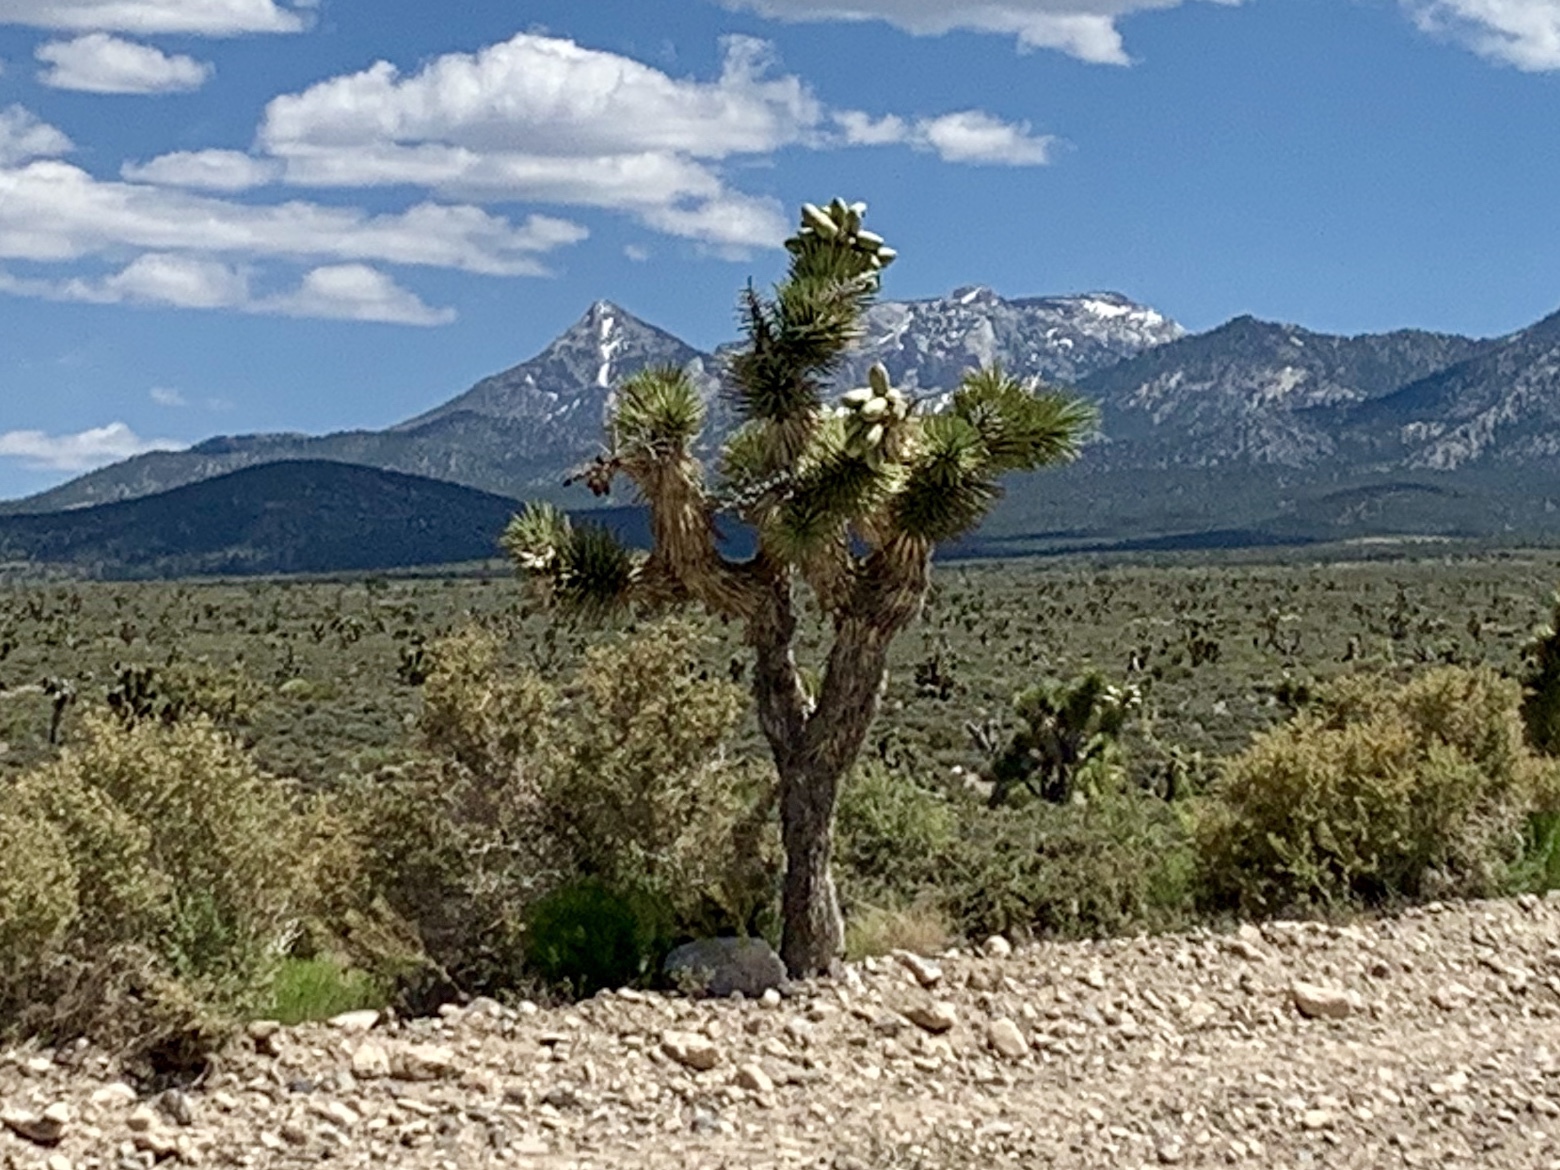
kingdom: Plantae
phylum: Tracheophyta
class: Liliopsida
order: Asparagales
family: Asparagaceae
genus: Yucca
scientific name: Yucca brevifolia
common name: Joshua tree
